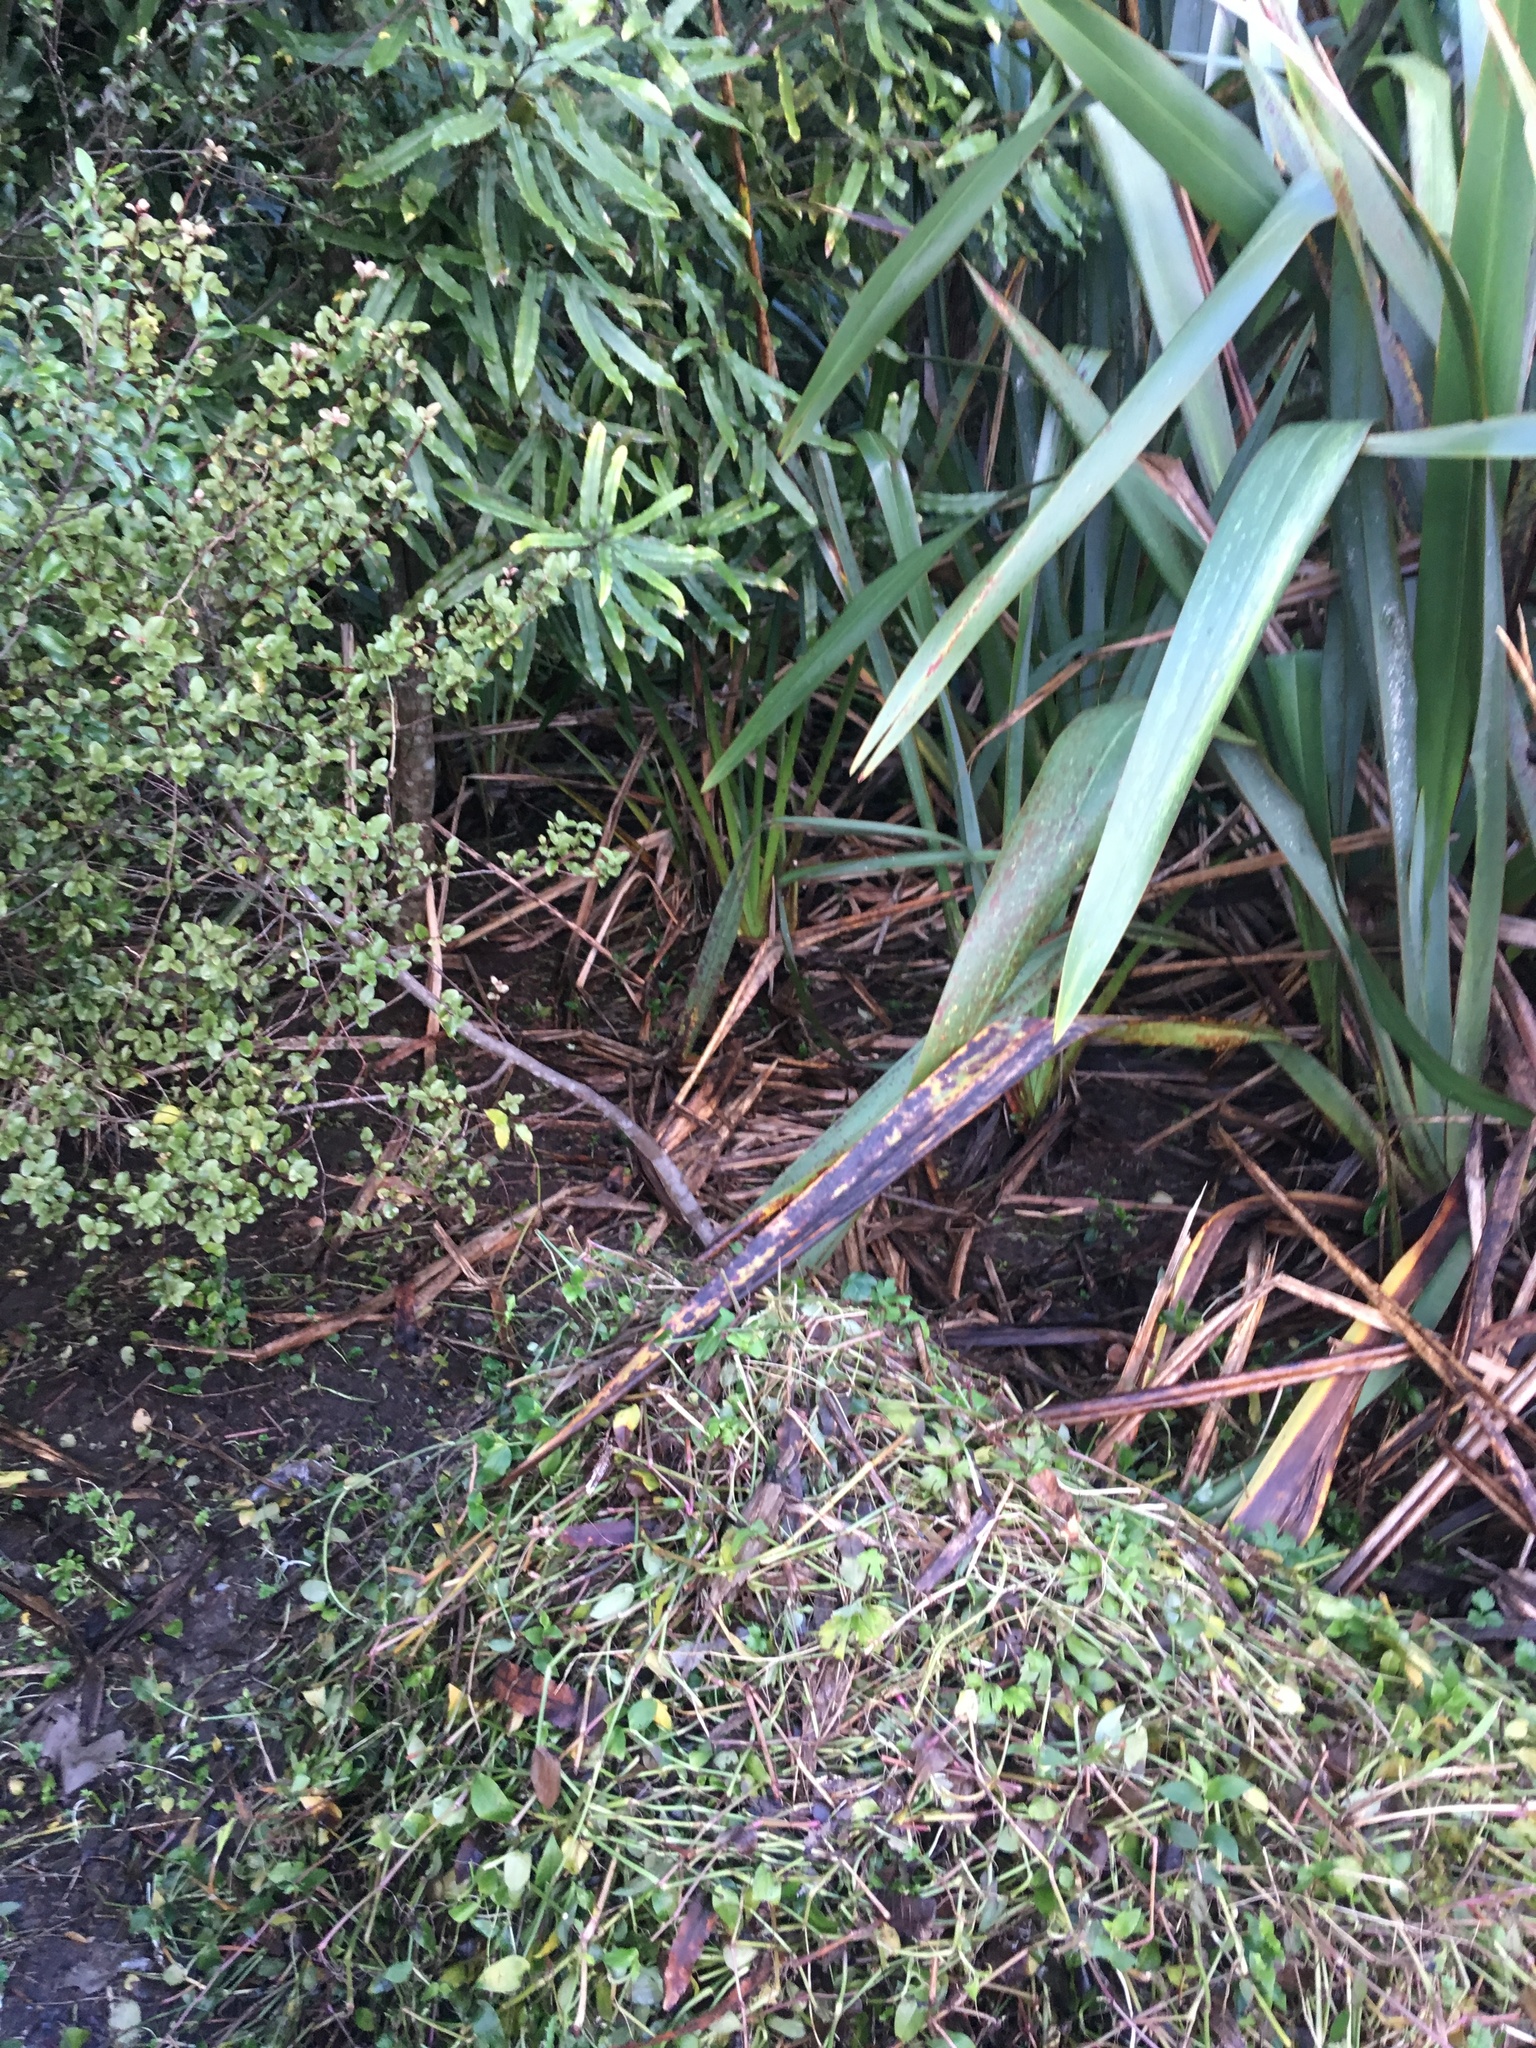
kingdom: Plantae
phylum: Tracheophyta
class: Liliopsida
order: Commelinales
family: Commelinaceae
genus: Tradescantia
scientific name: Tradescantia fluminensis
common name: Wandering-jew
